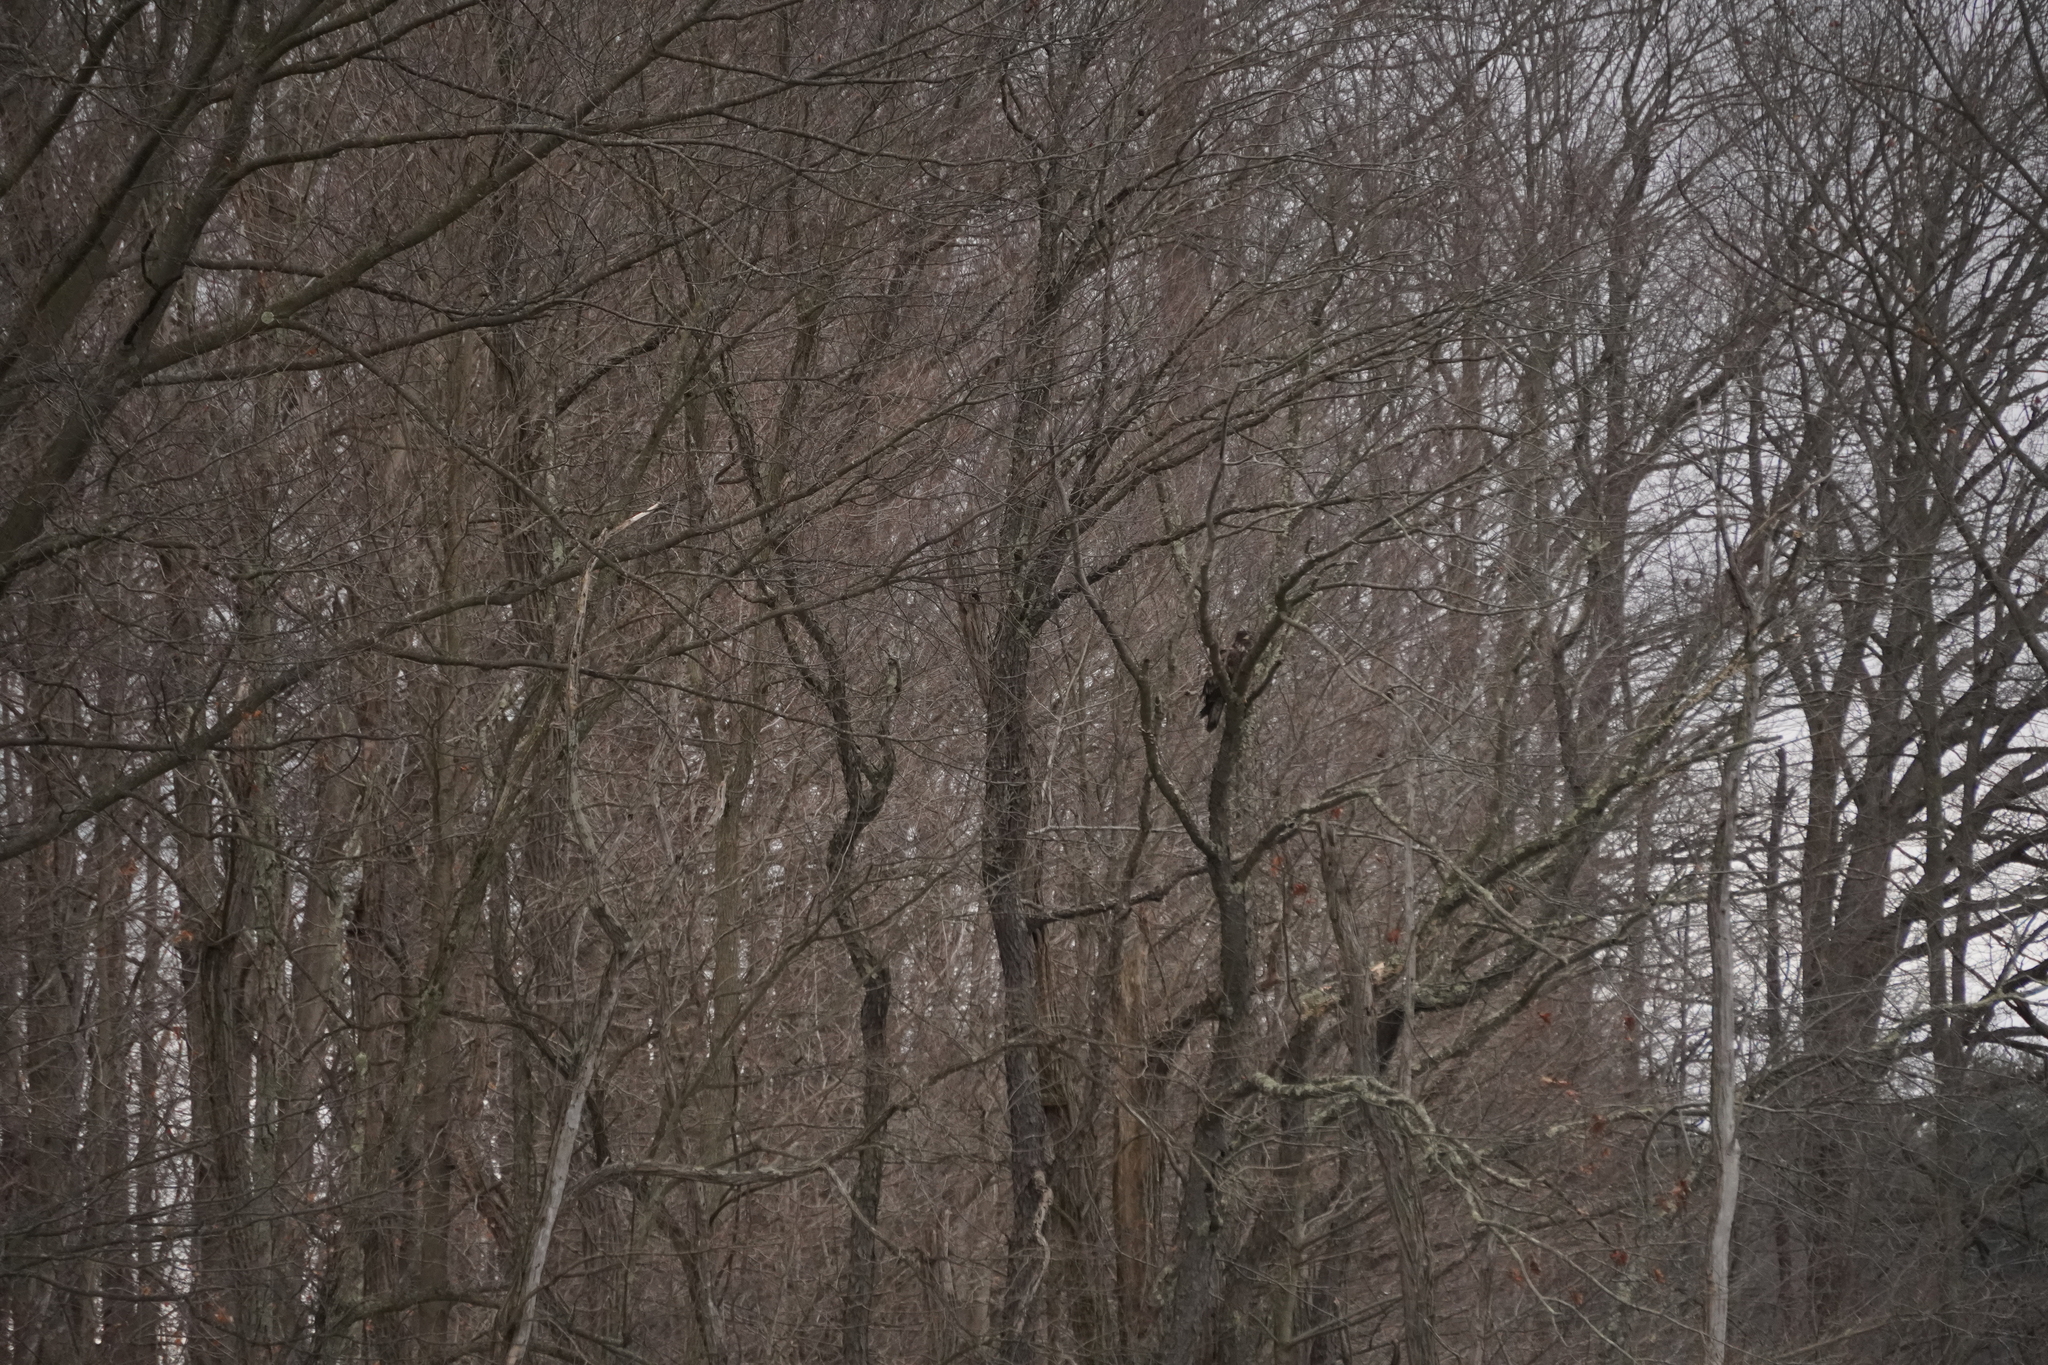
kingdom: Animalia
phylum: Chordata
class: Aves
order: Accipitriformes
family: Accipitridae
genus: Haliaeetus
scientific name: Haliaeetus leucocephalus
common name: Bald eagle
